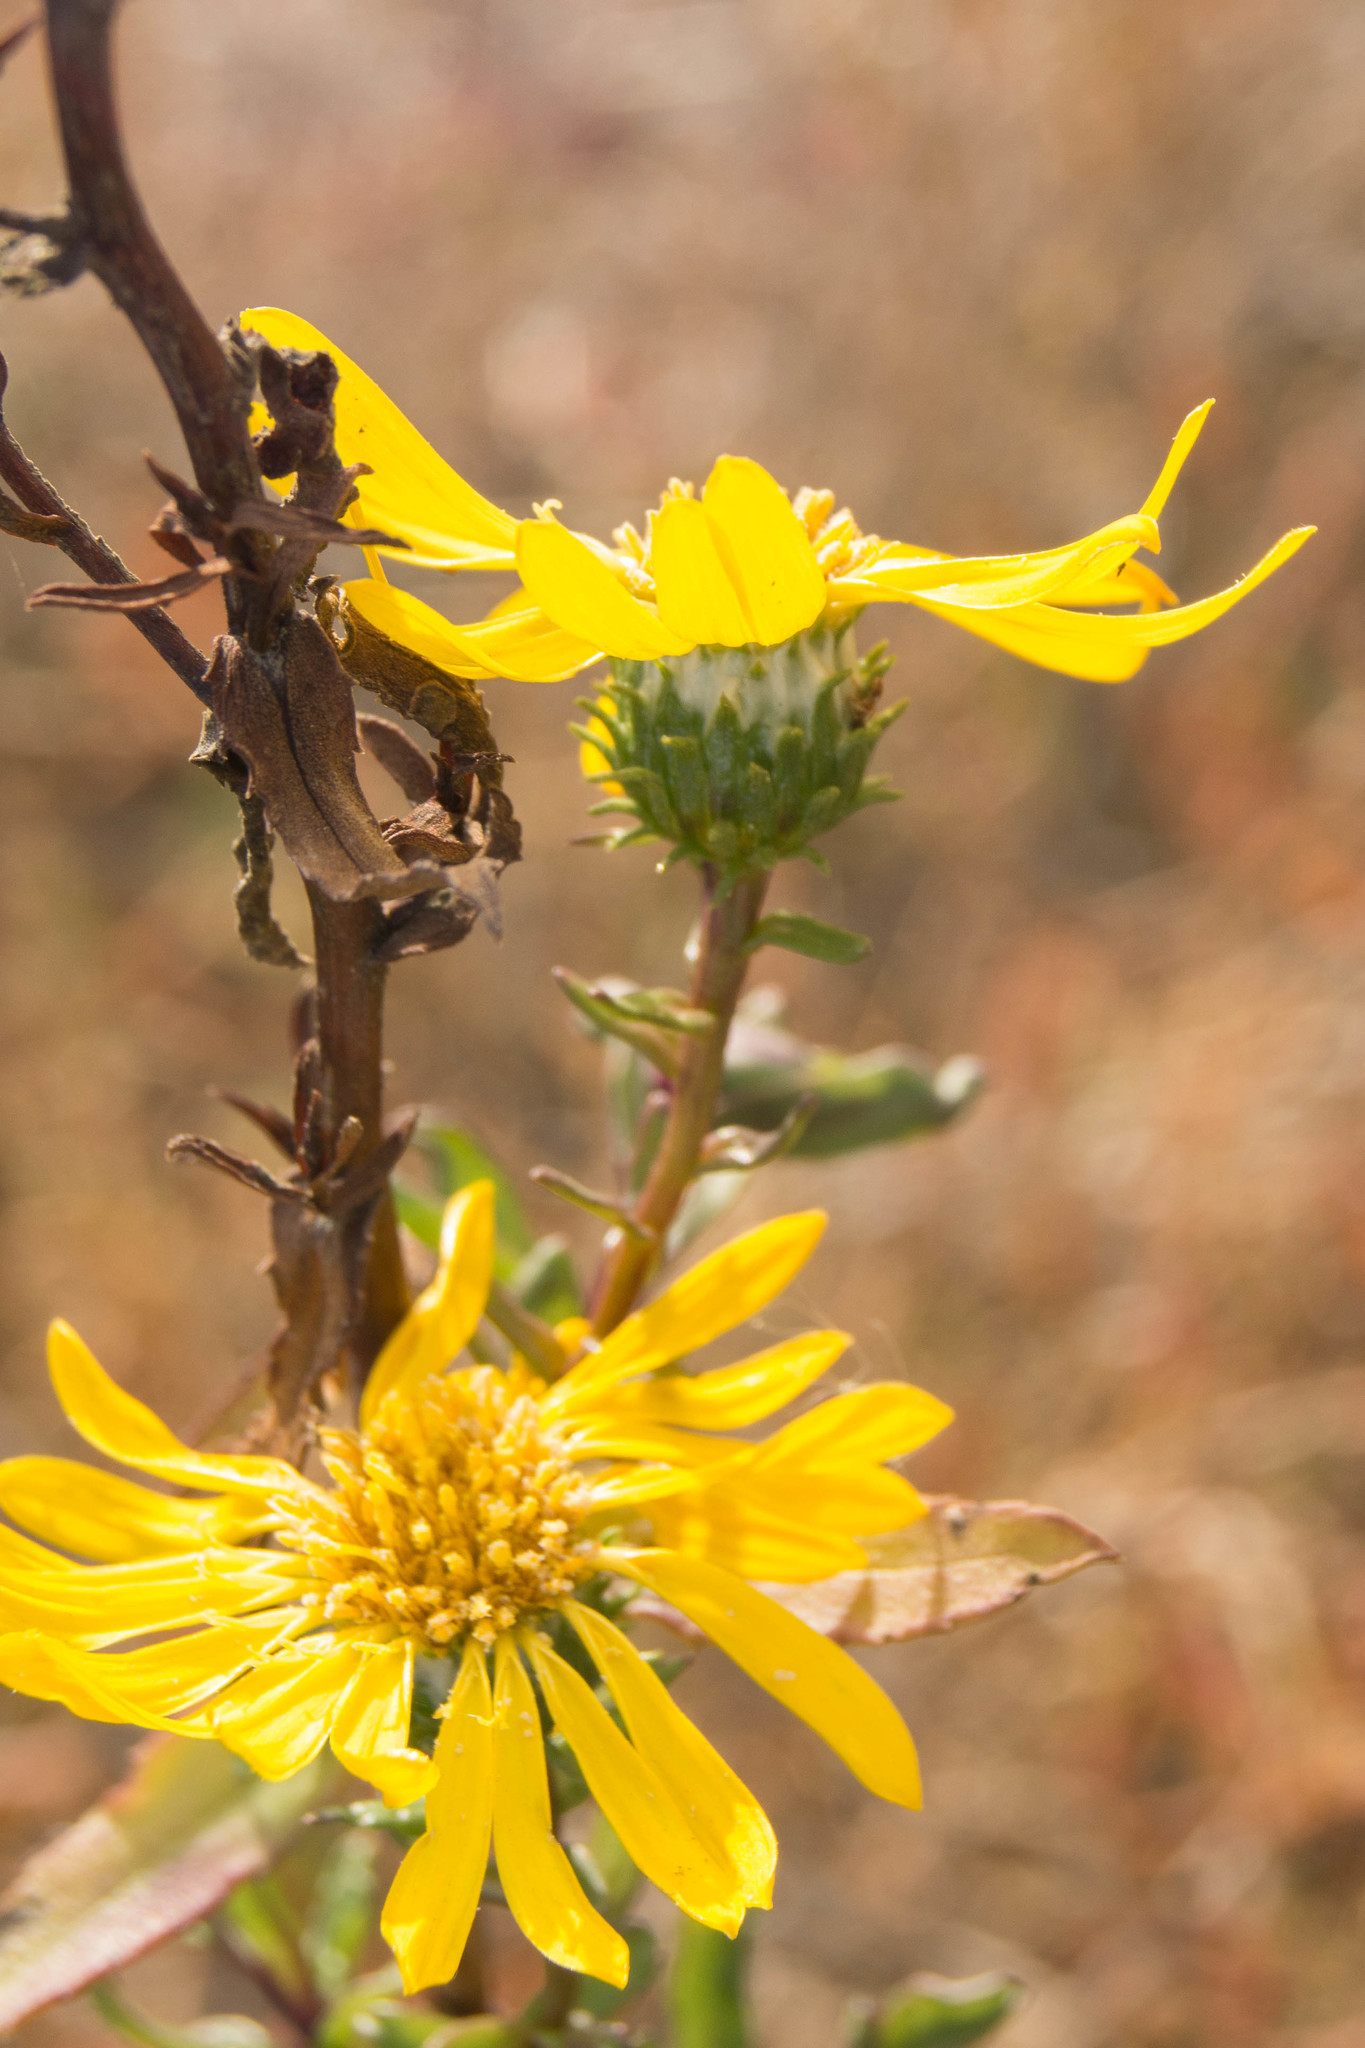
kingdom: Plantae
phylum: Tracheophyta
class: Magnoliopsida
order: Asterales
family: Asteraceae
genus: Grindelia
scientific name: Grindelia hirsutula
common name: Hairy gumweed
